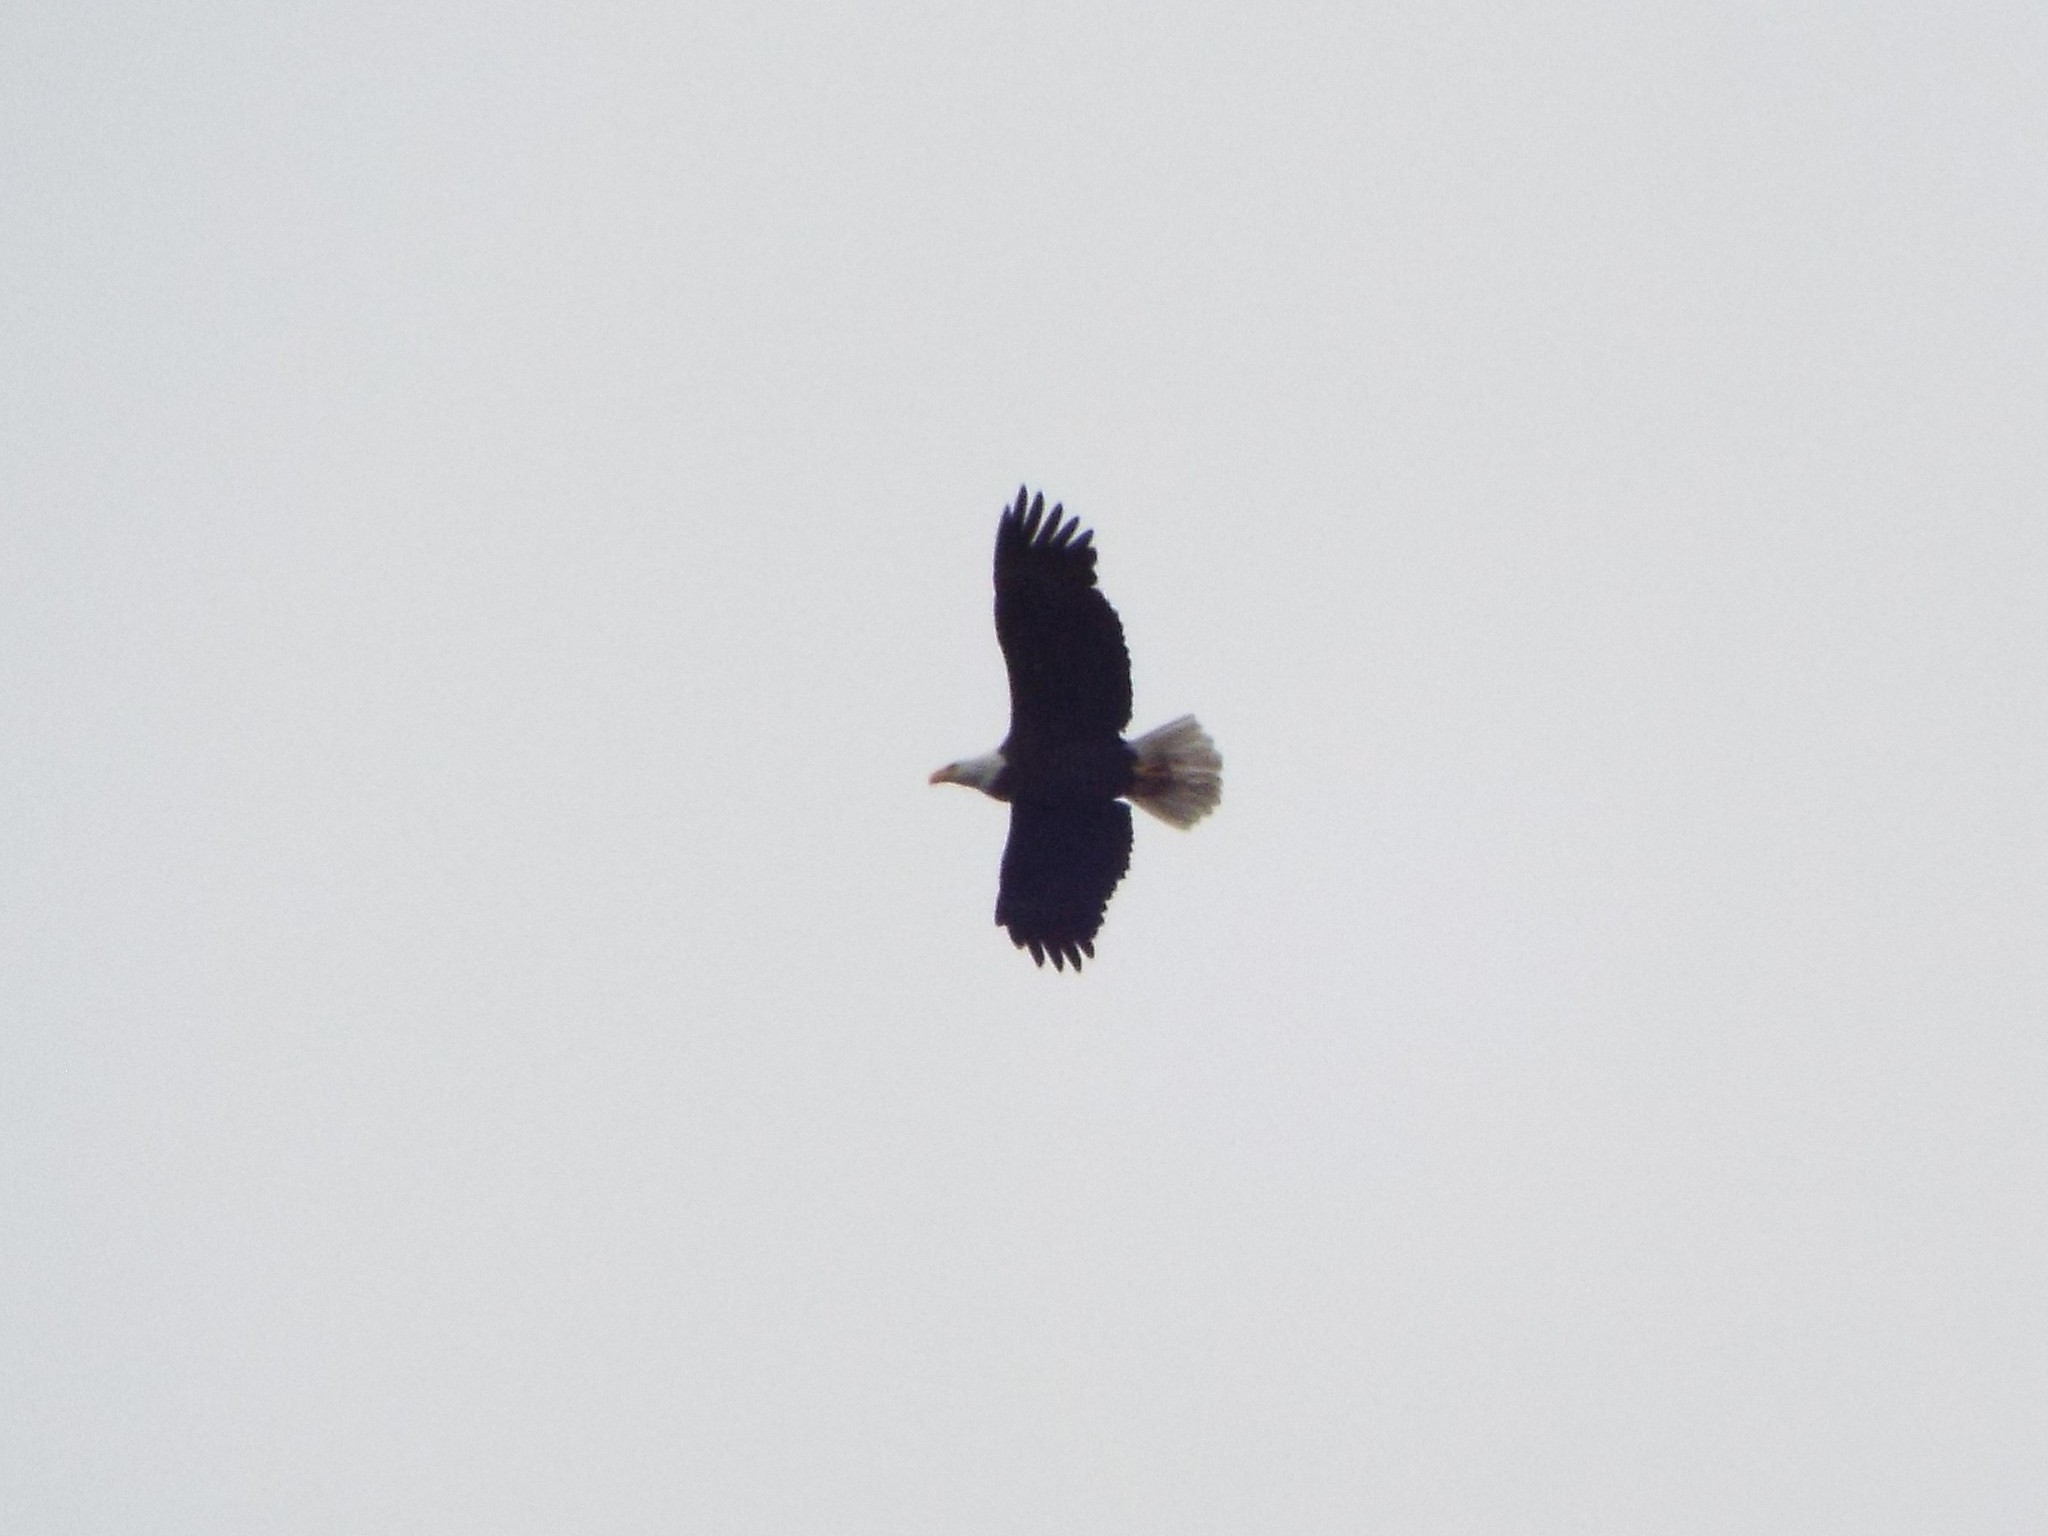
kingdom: Animalia
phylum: Chordata
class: Aves
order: Accipitriformes
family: Accipitridae
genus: Haliaeetus
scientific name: Haliaeetus leucocephalus
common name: Bald eagle
